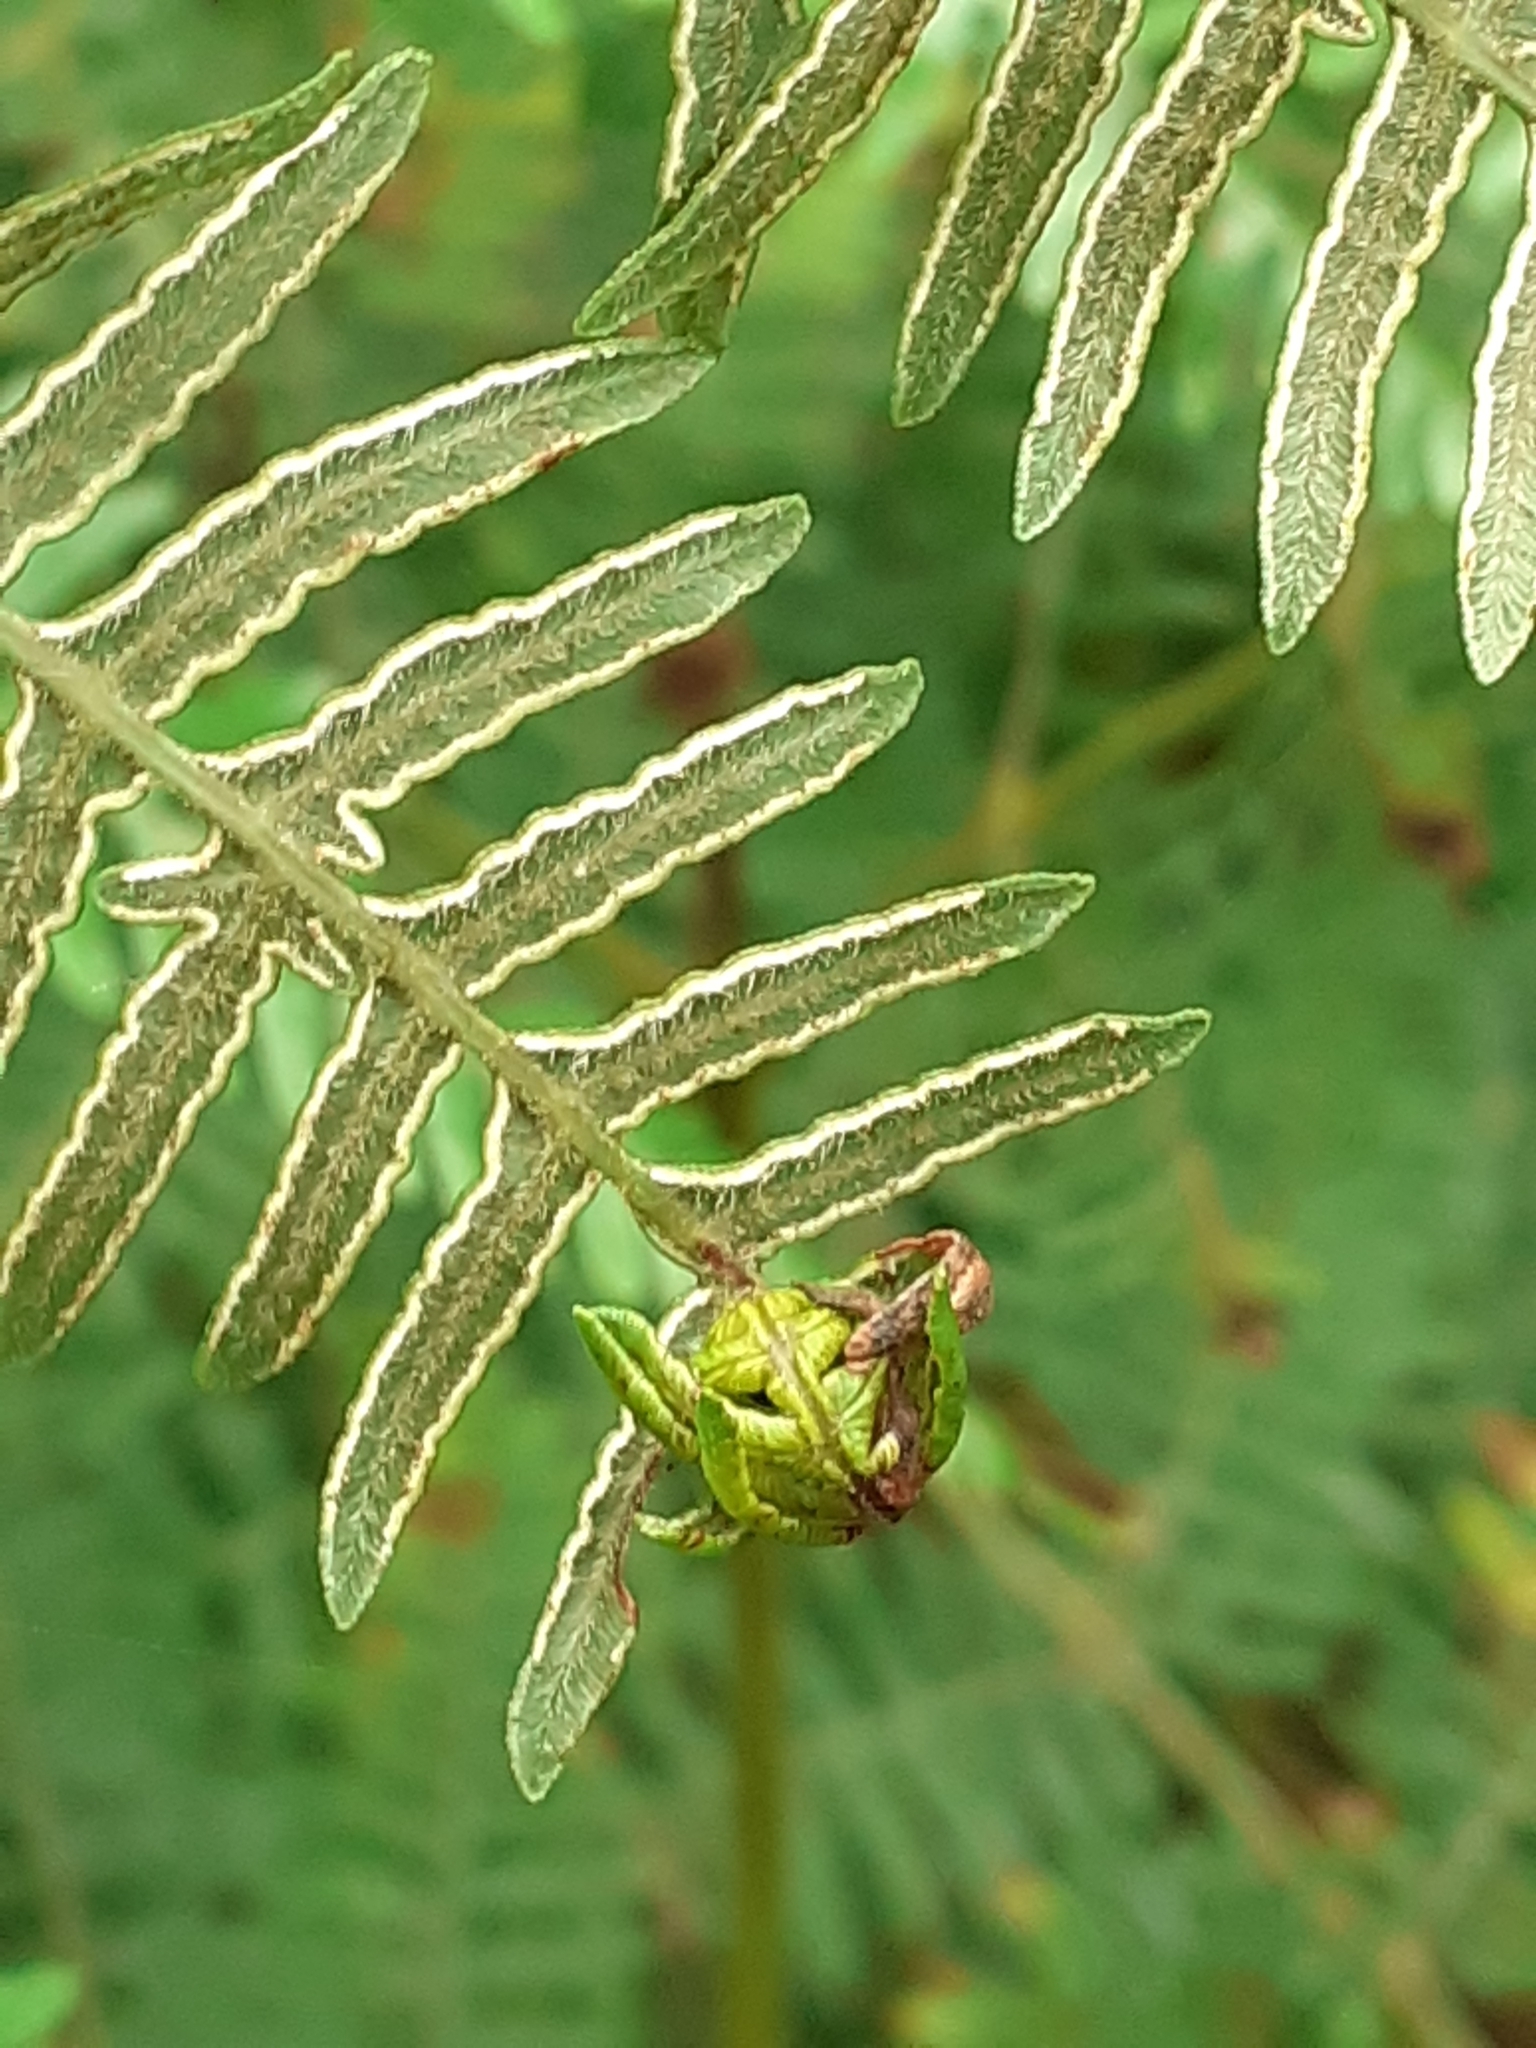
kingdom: Animalia
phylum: Arthropoda
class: Insecta
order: Diptera
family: Anthomyiidae
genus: Chirosia
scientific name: Chirosia grossicauda
